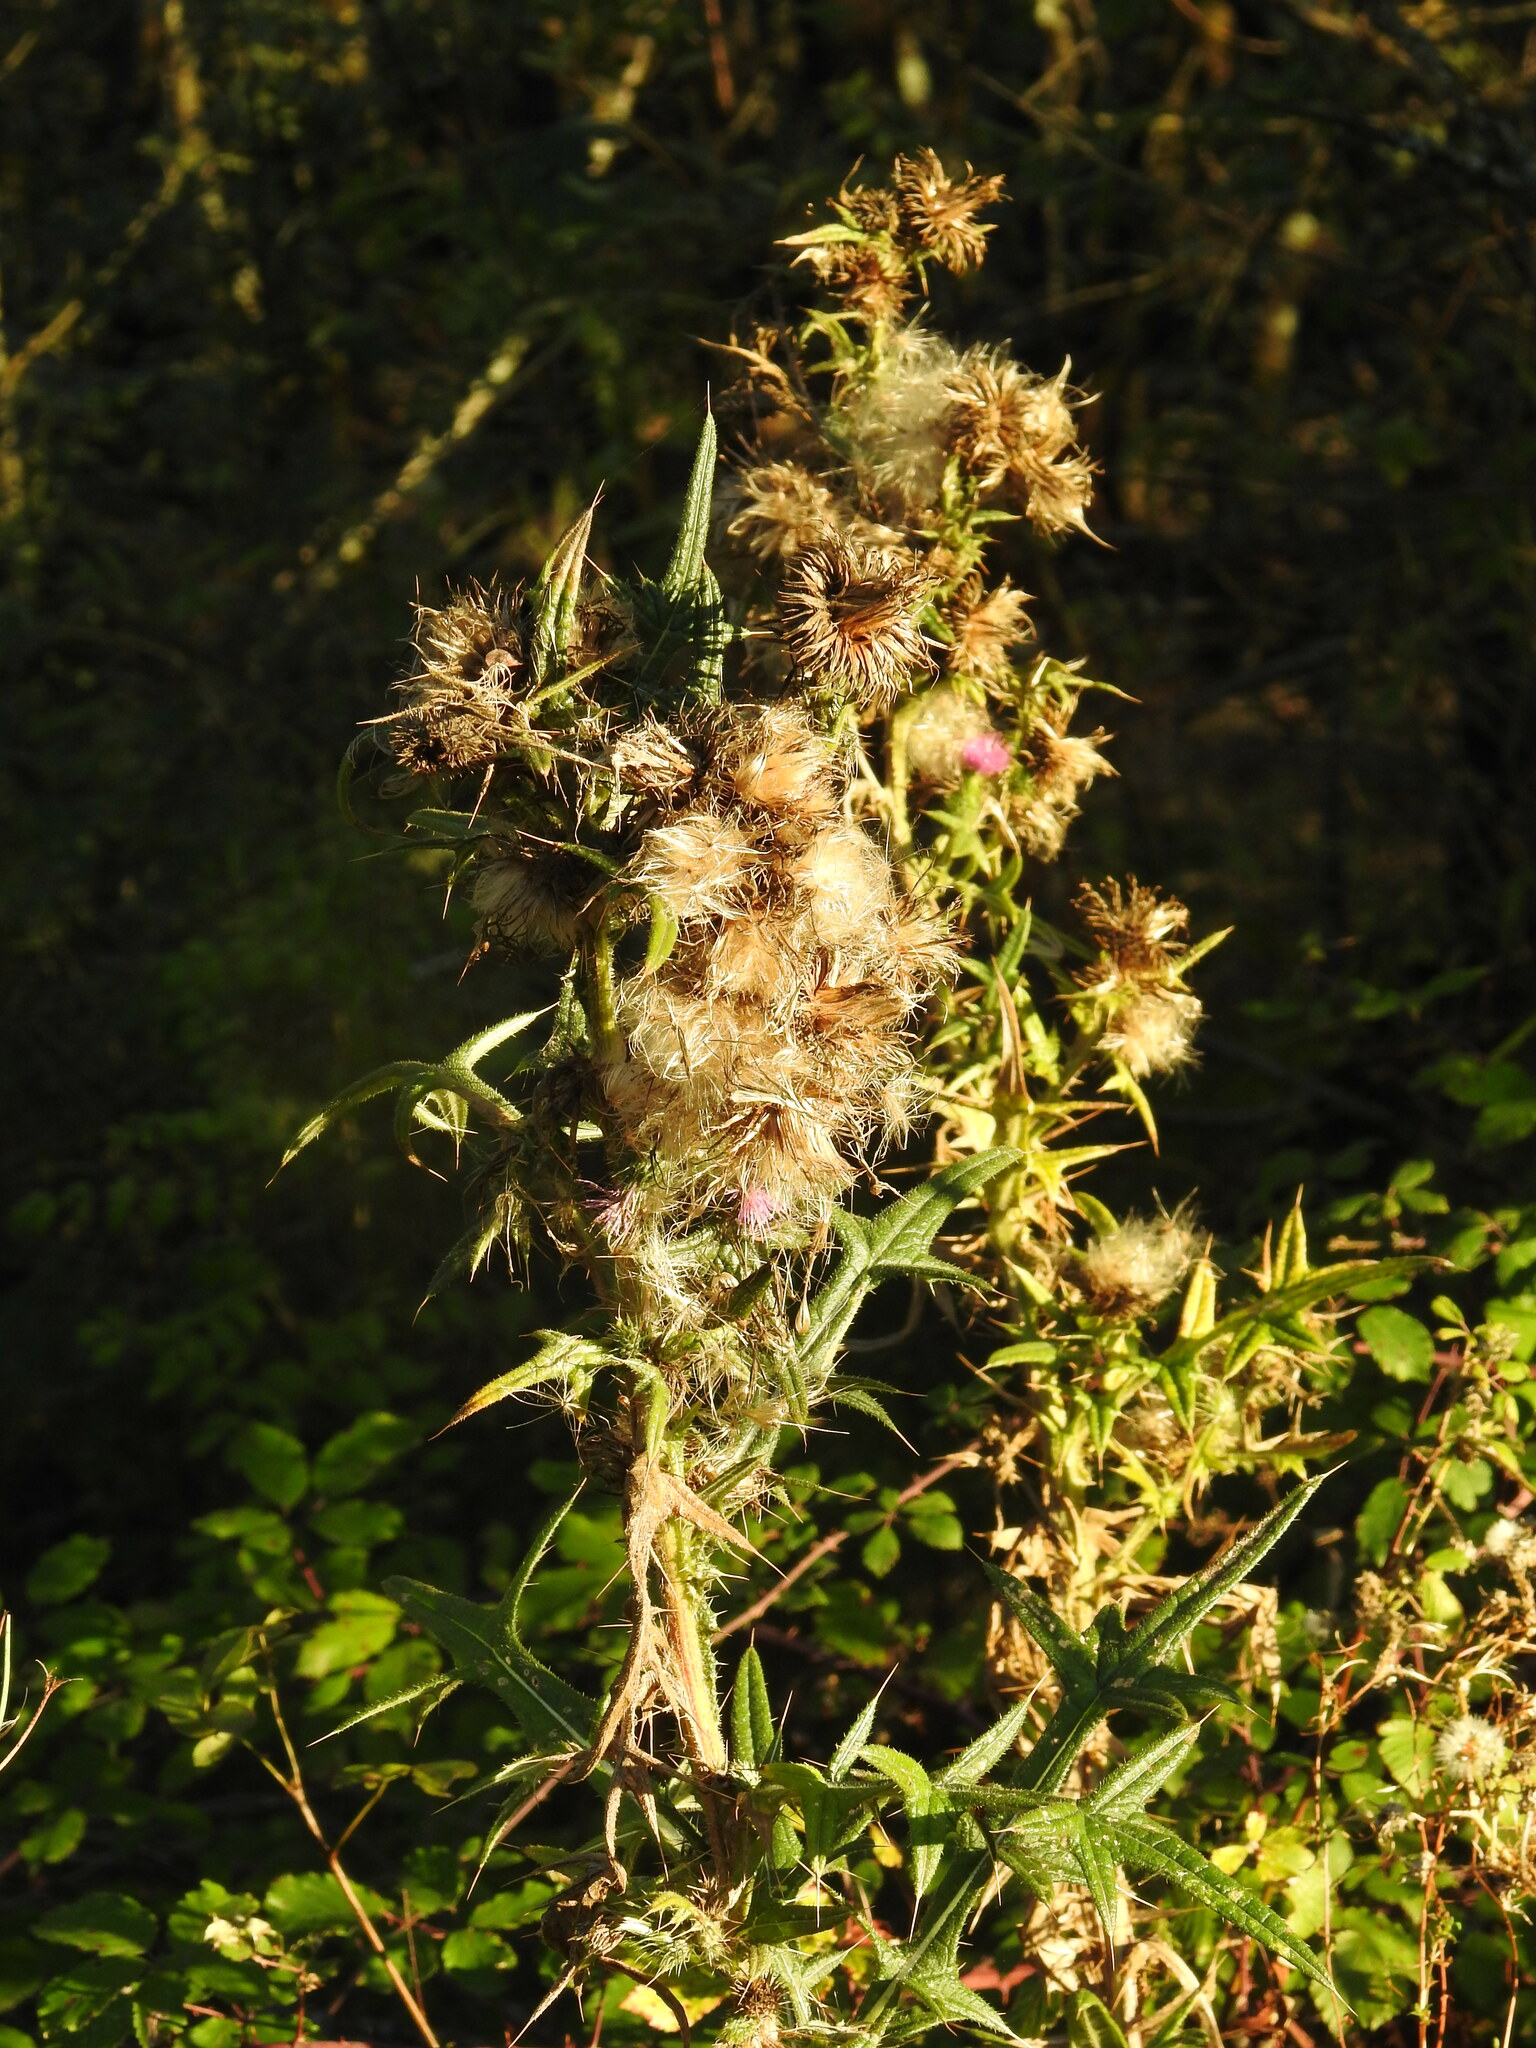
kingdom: Plantae
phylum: Tracheophyta
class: Magnoliopsida
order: Asterales
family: Asteraceae
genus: Cirsium
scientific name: Cirsium vulgare
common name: Bull thistle
